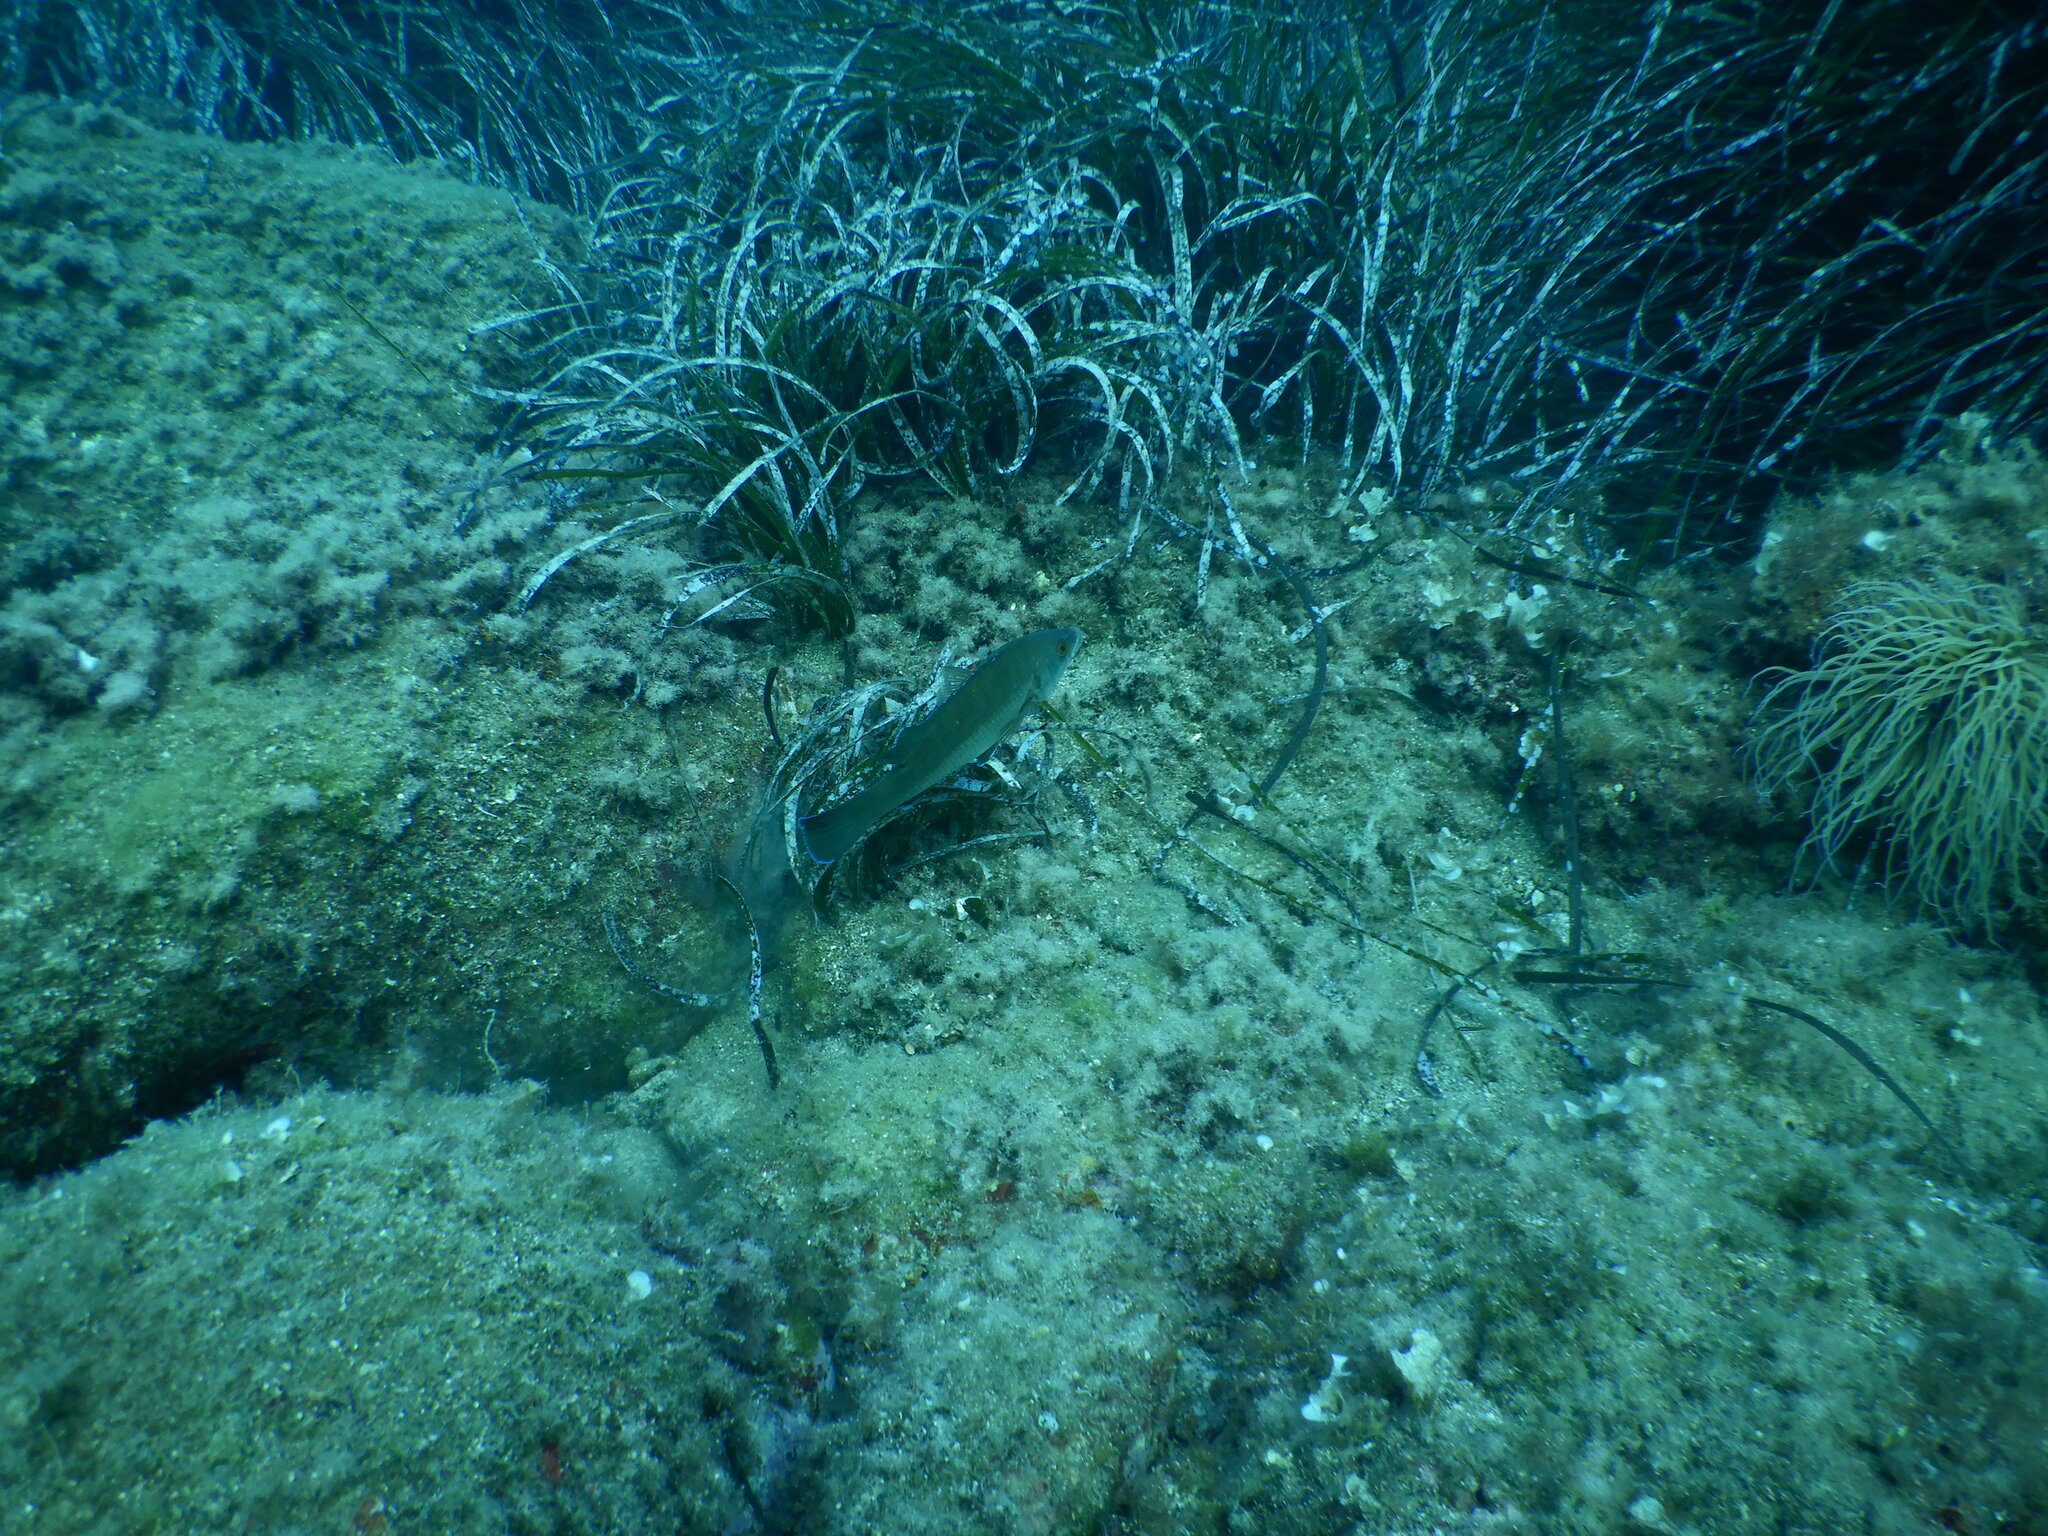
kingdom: Animalia
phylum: Chordata
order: Perciformes
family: Labridae
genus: Labrus
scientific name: Labrus merula
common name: Brown wrasse
